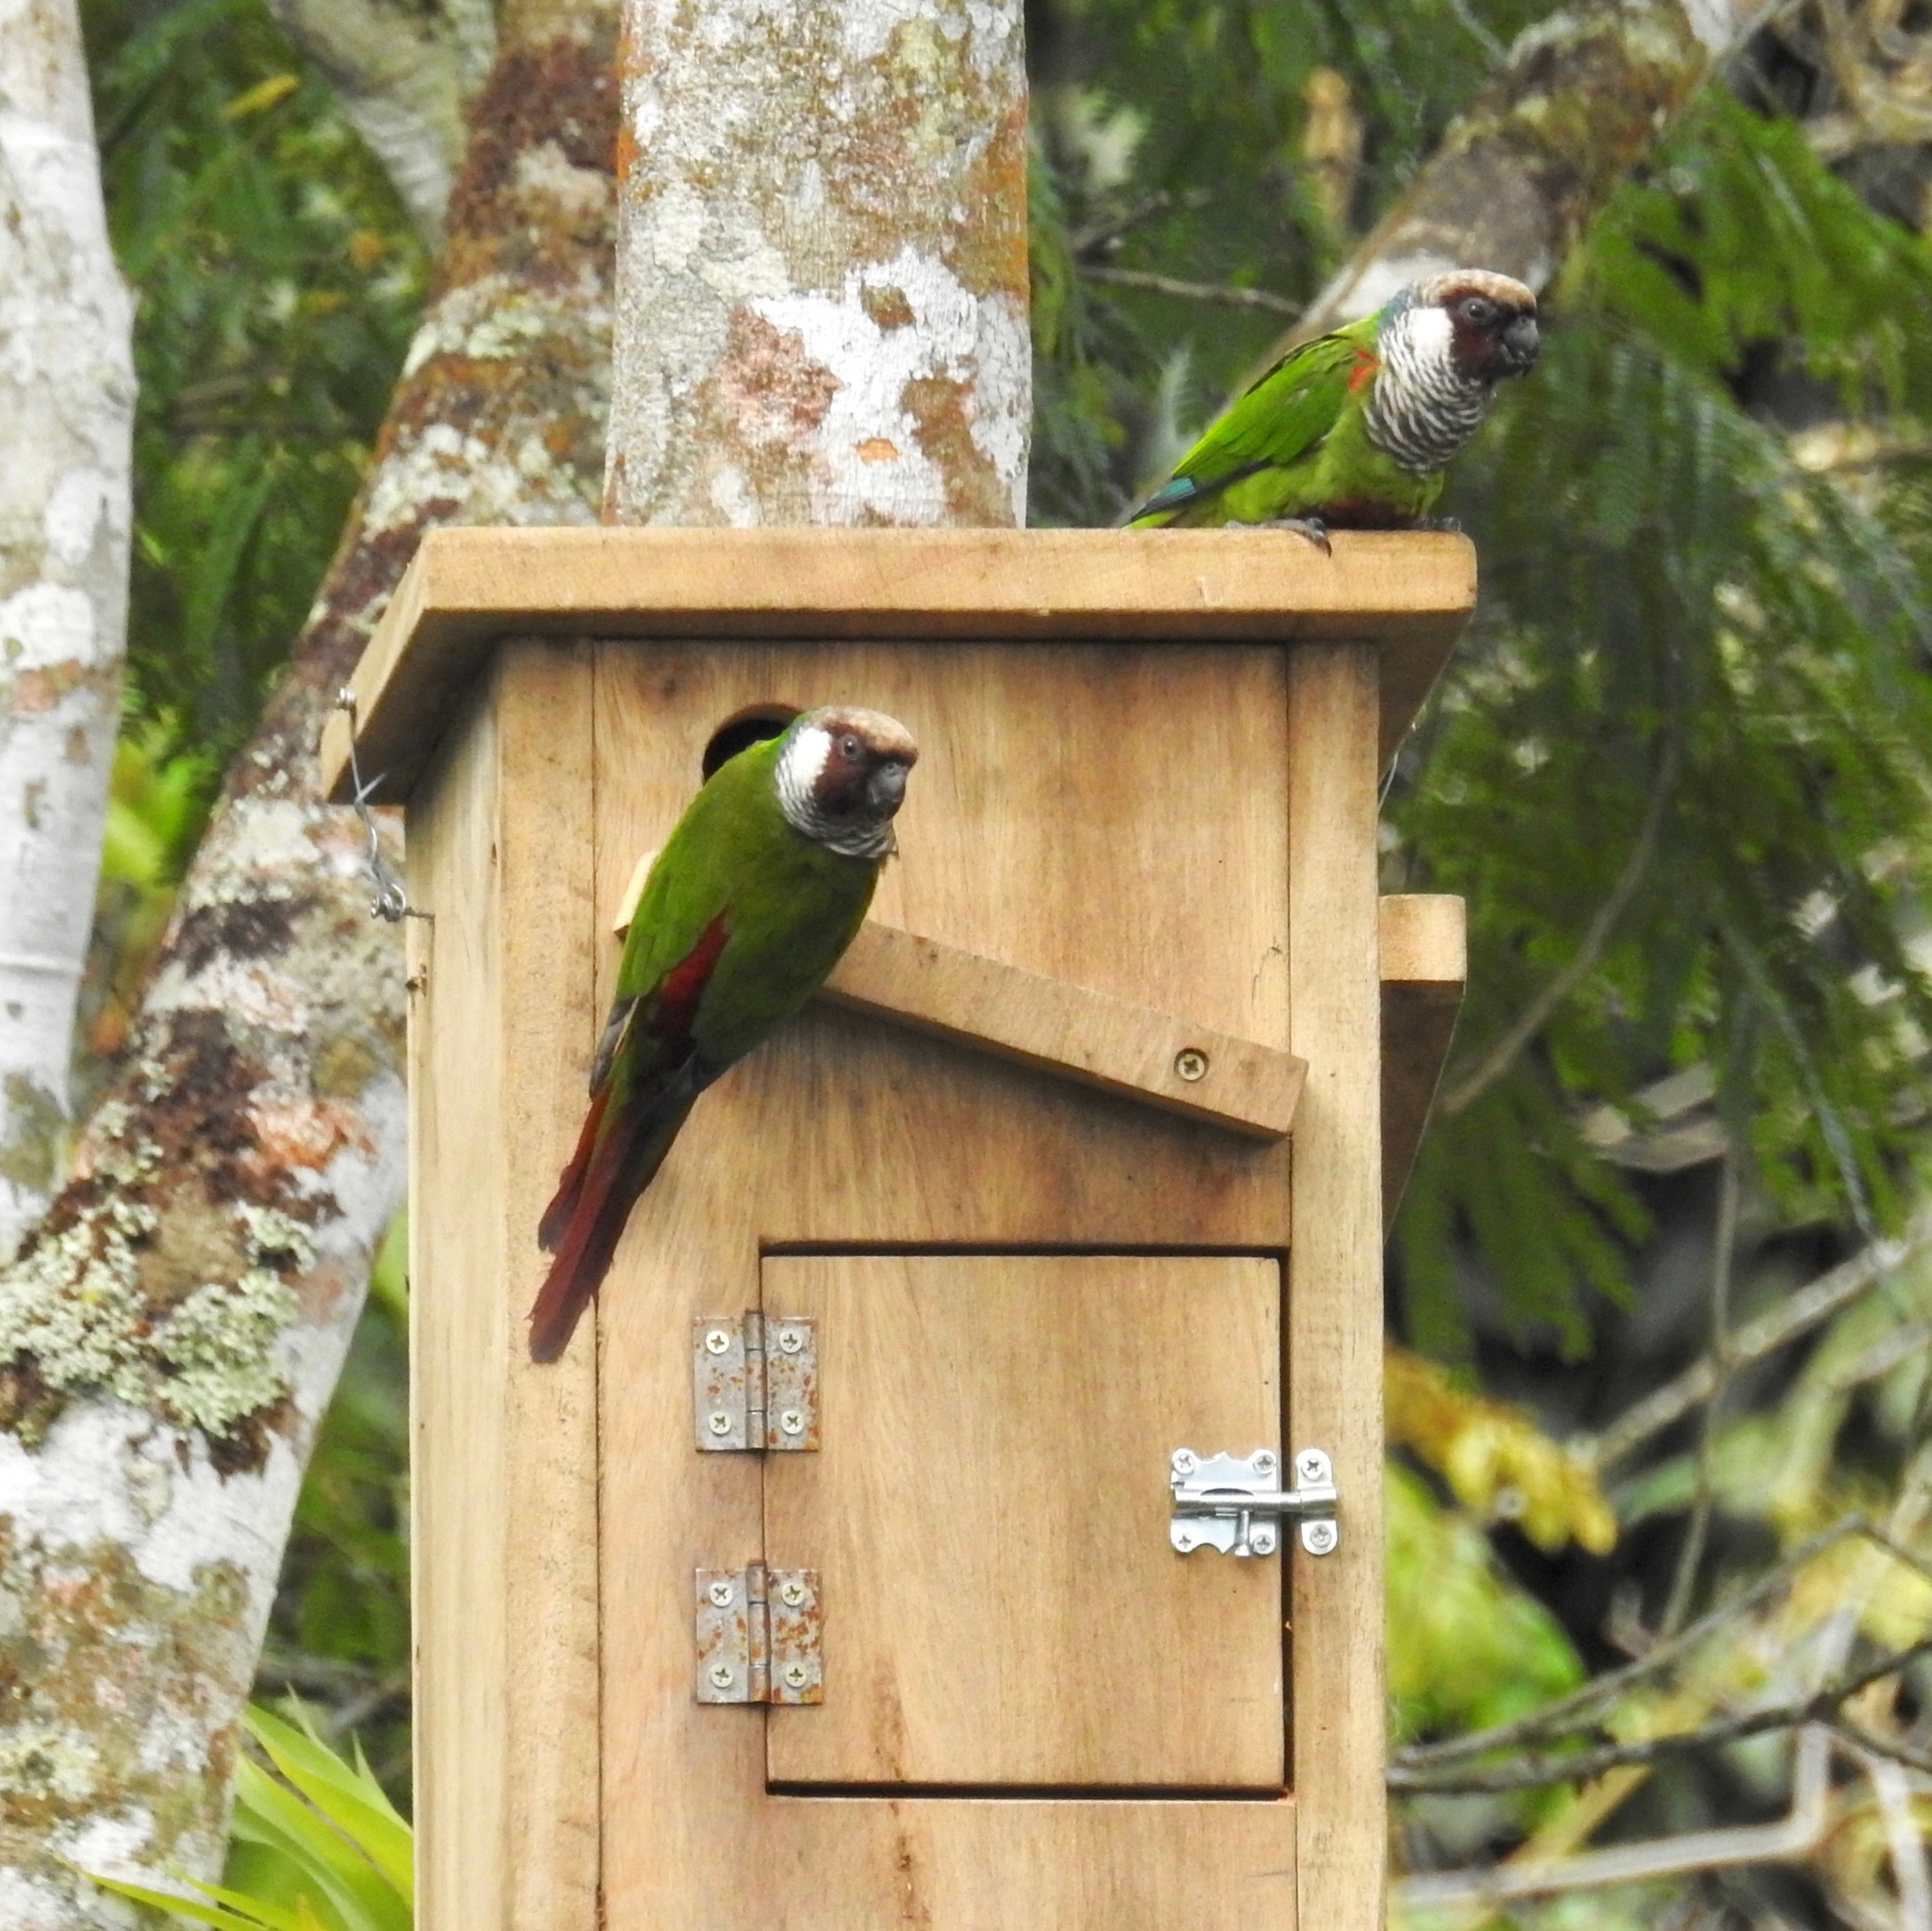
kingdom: Animalia
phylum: Chordata
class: Aves
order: Psittaciformes
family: Psittacidae
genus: Pyrrhura
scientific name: Pyrrhura griseipectus
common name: Gray-breasted parakeet
